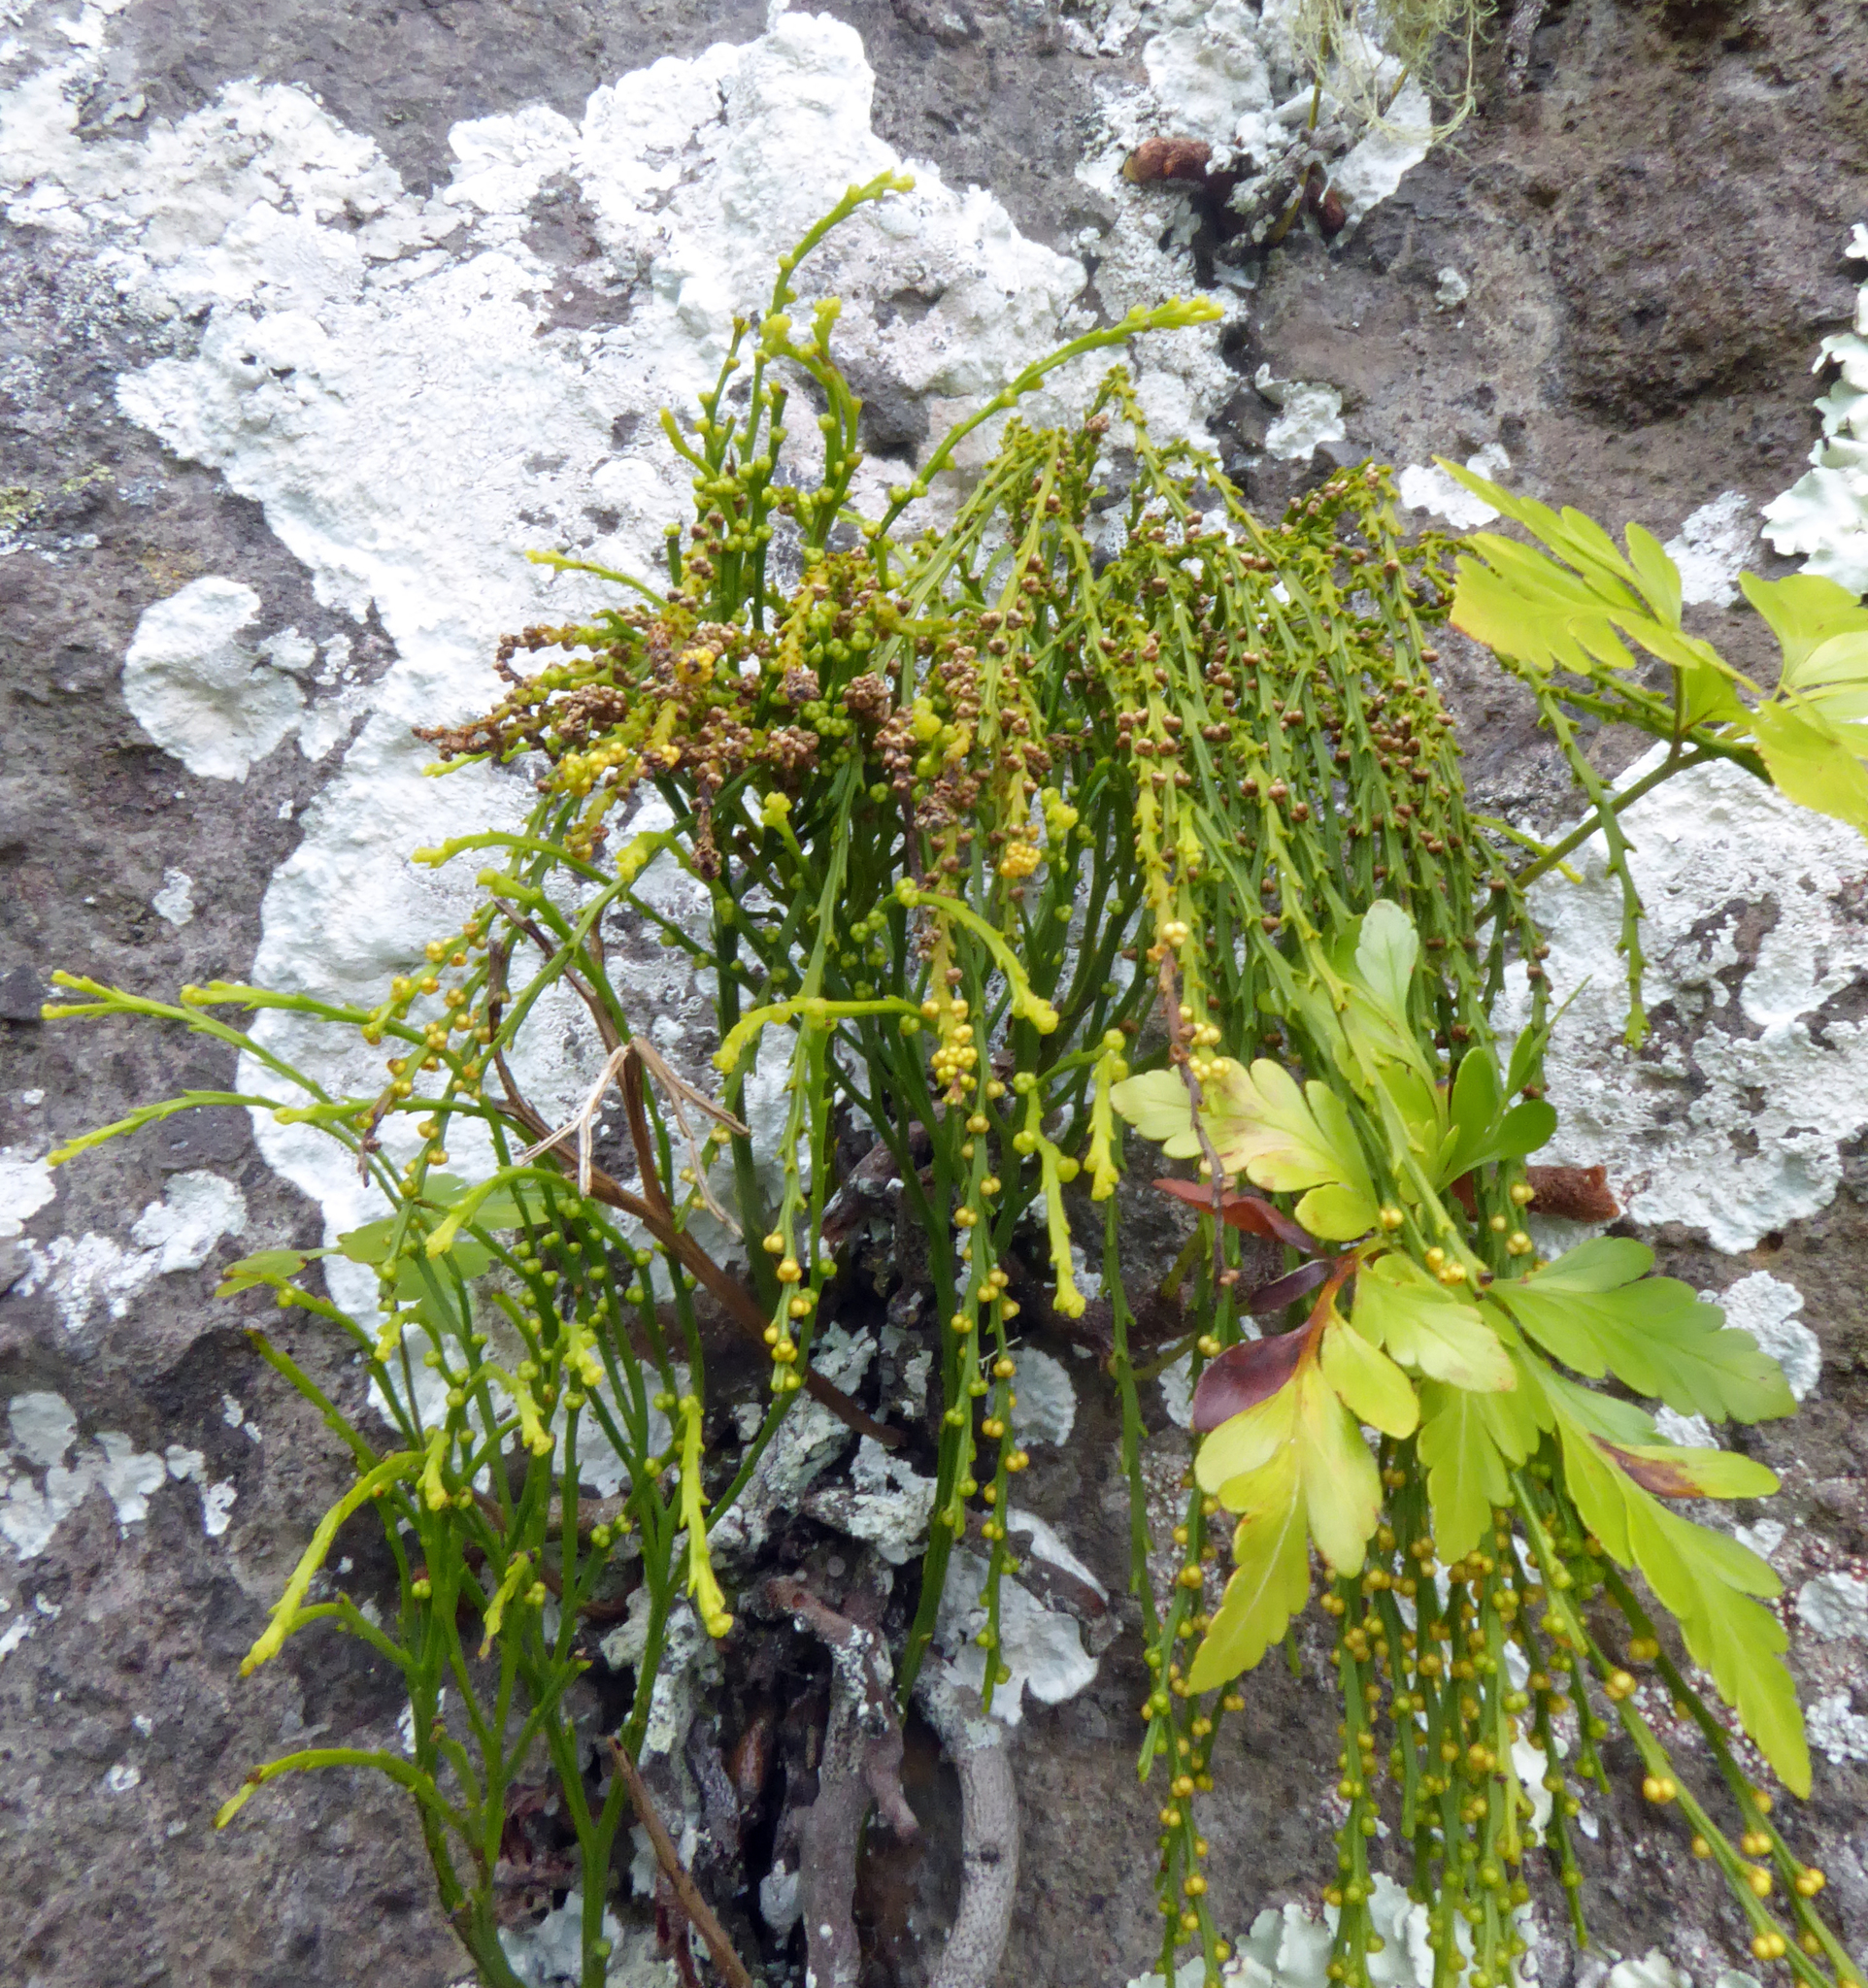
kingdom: Plantae
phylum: Tracheophyta
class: Polypodiopsida
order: Psilotales
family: Psilotaceae
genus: Psilotum
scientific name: Psilotum nudum
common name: Skeleton fork fern
